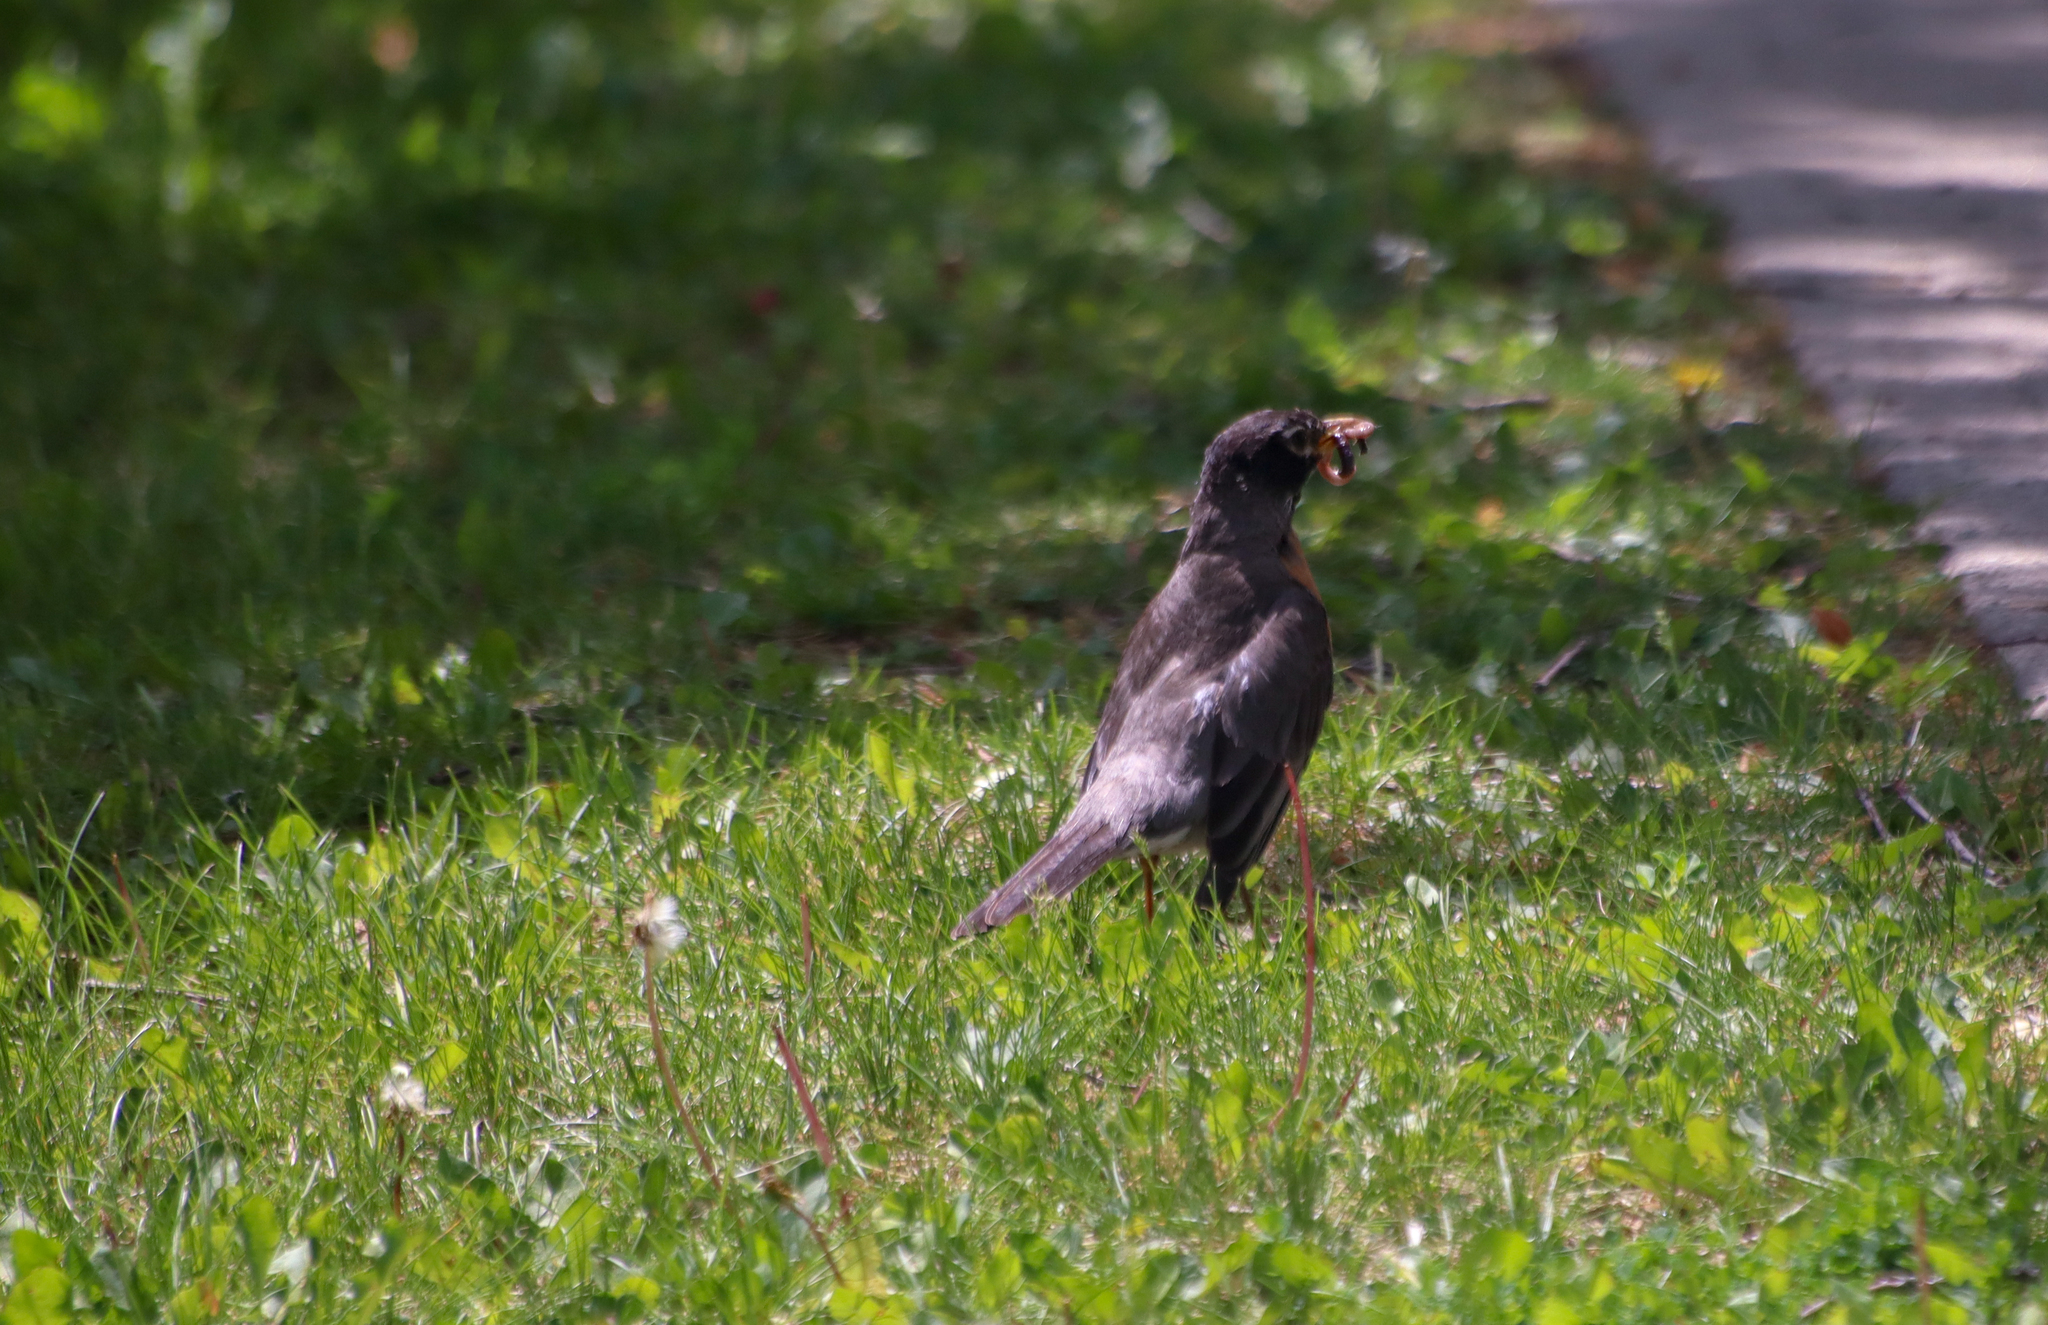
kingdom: Animalia
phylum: Chordata
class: Aves
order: Passeriformes
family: Turdidae
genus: Turdus
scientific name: Turdus migratorius
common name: American robin
